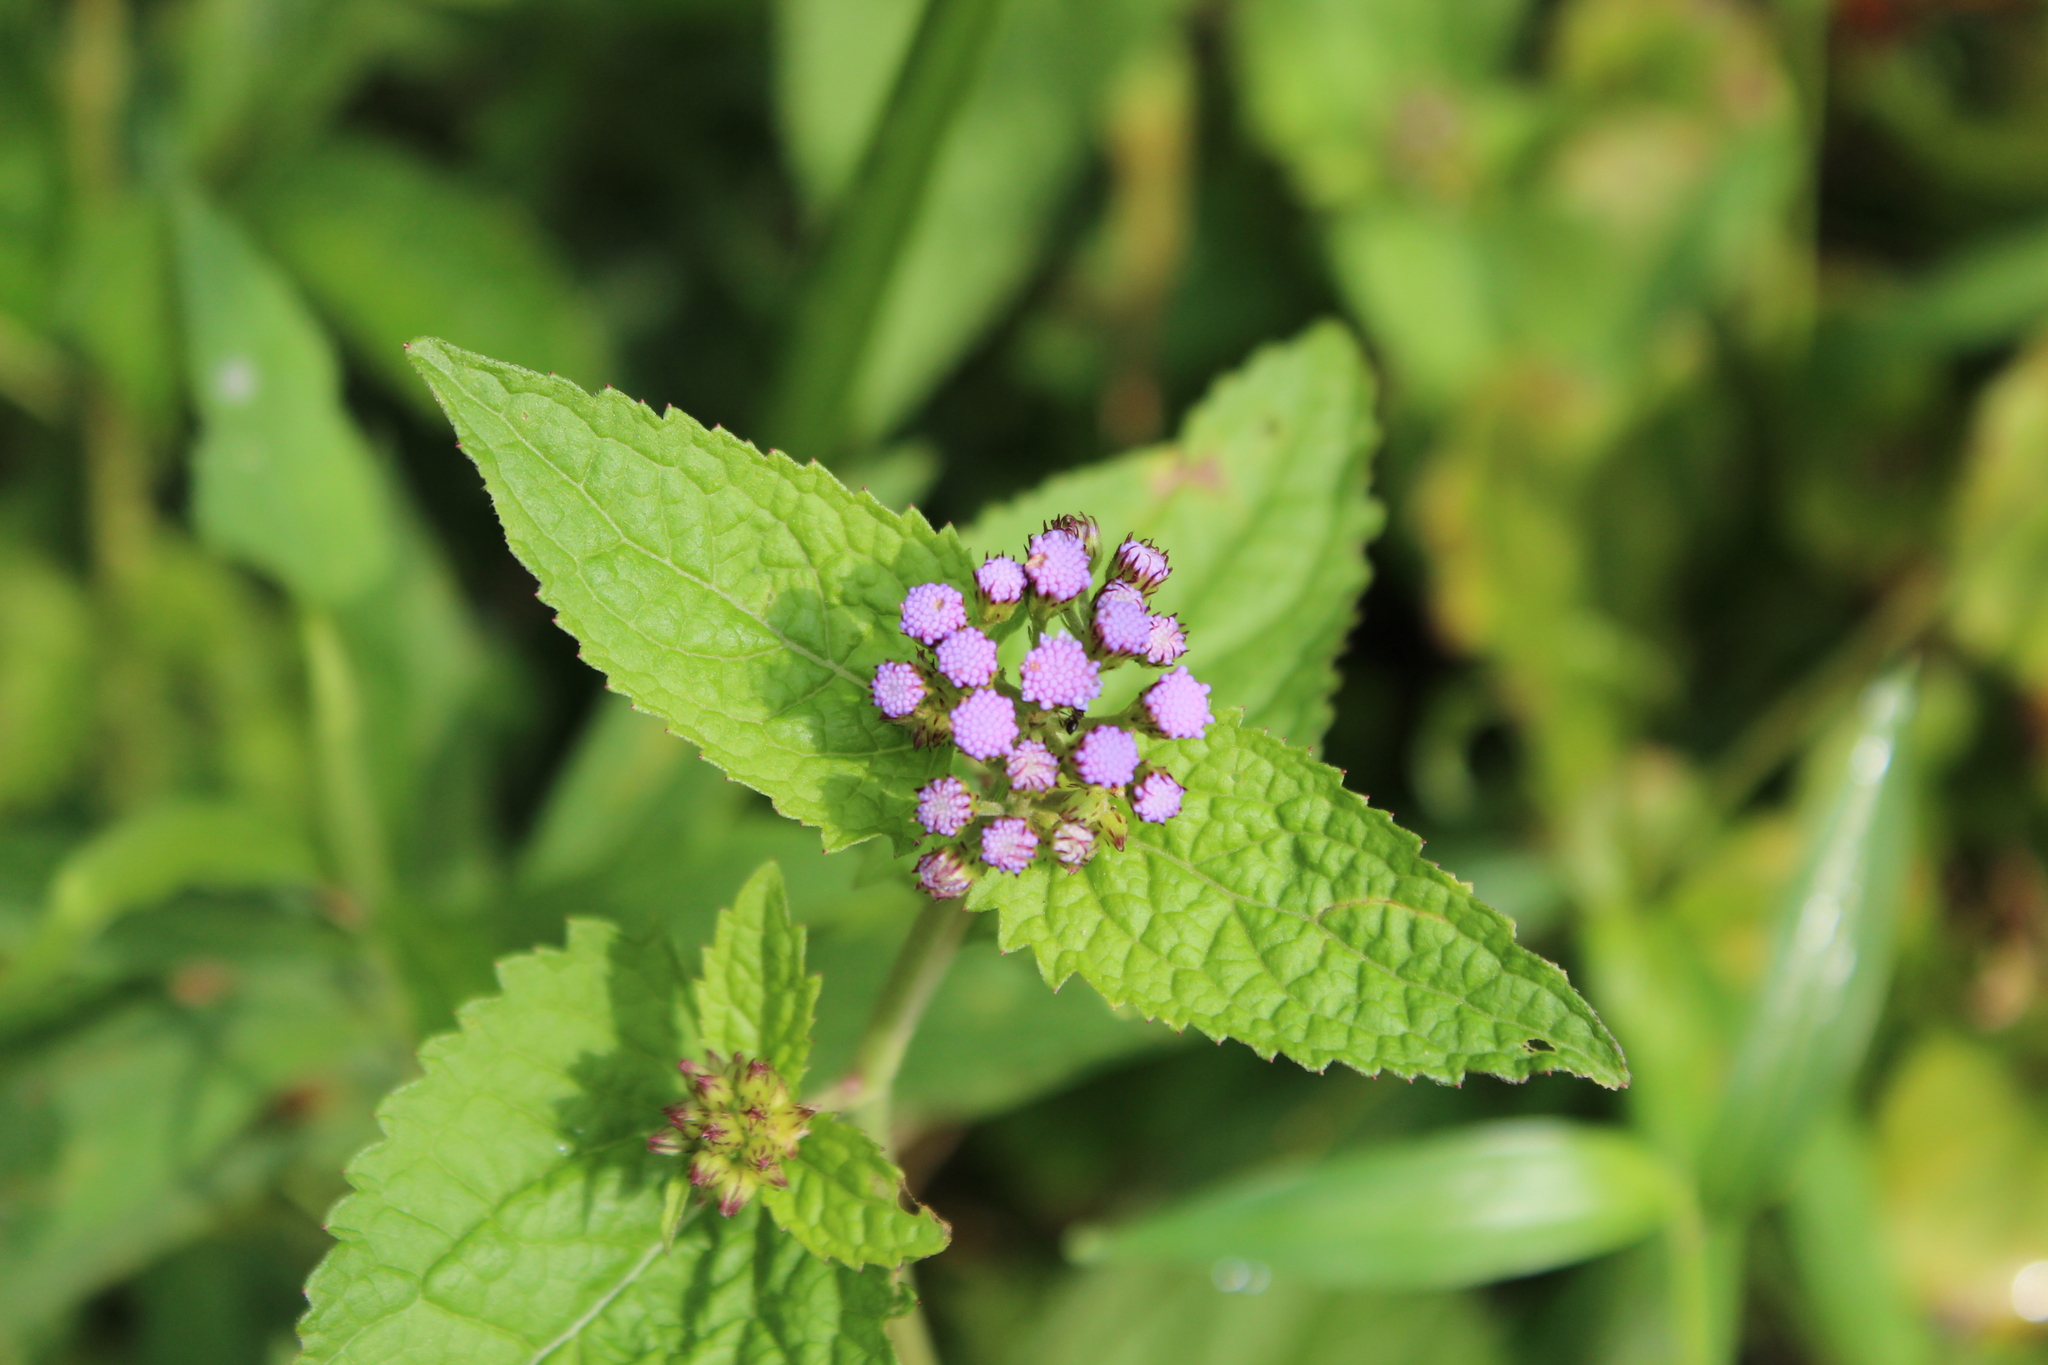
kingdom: Plantae
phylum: Tracheophyta
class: Magnoliopsida
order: Asterales
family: Asteraceae
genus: Conoclinium
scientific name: Conoclinium coelestinum
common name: Blue mistflower
